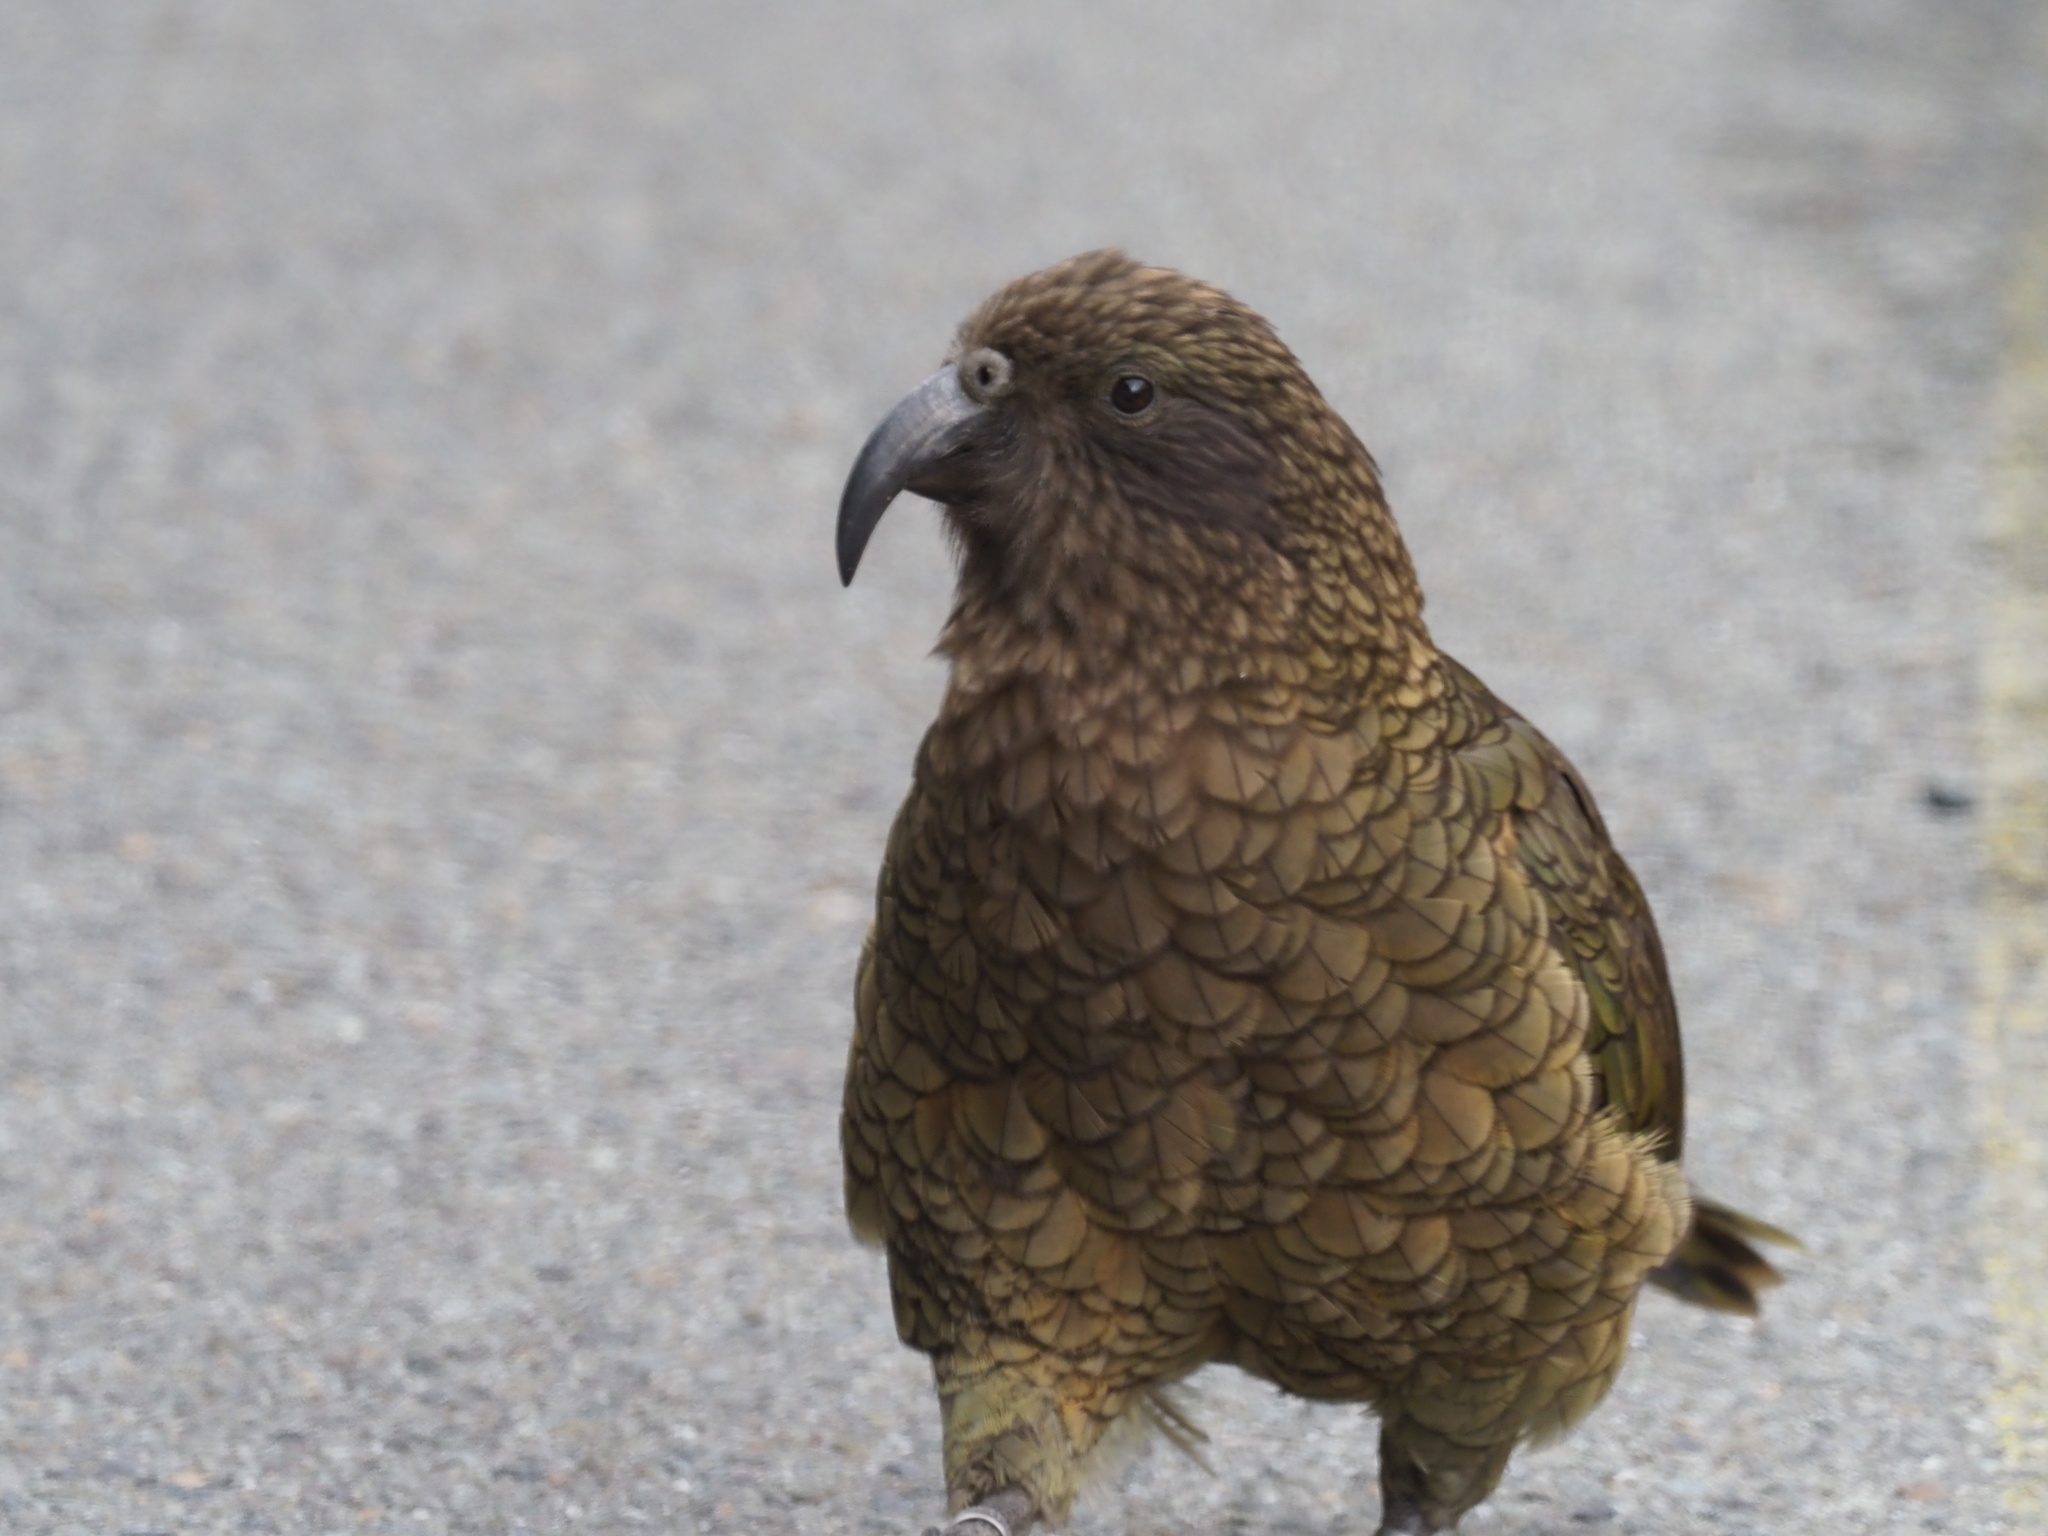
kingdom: Animalia
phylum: Chordata
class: Aves
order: Psittaciformes
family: Psittacidae
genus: Nestor
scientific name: Nestor notabilis
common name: Kea
